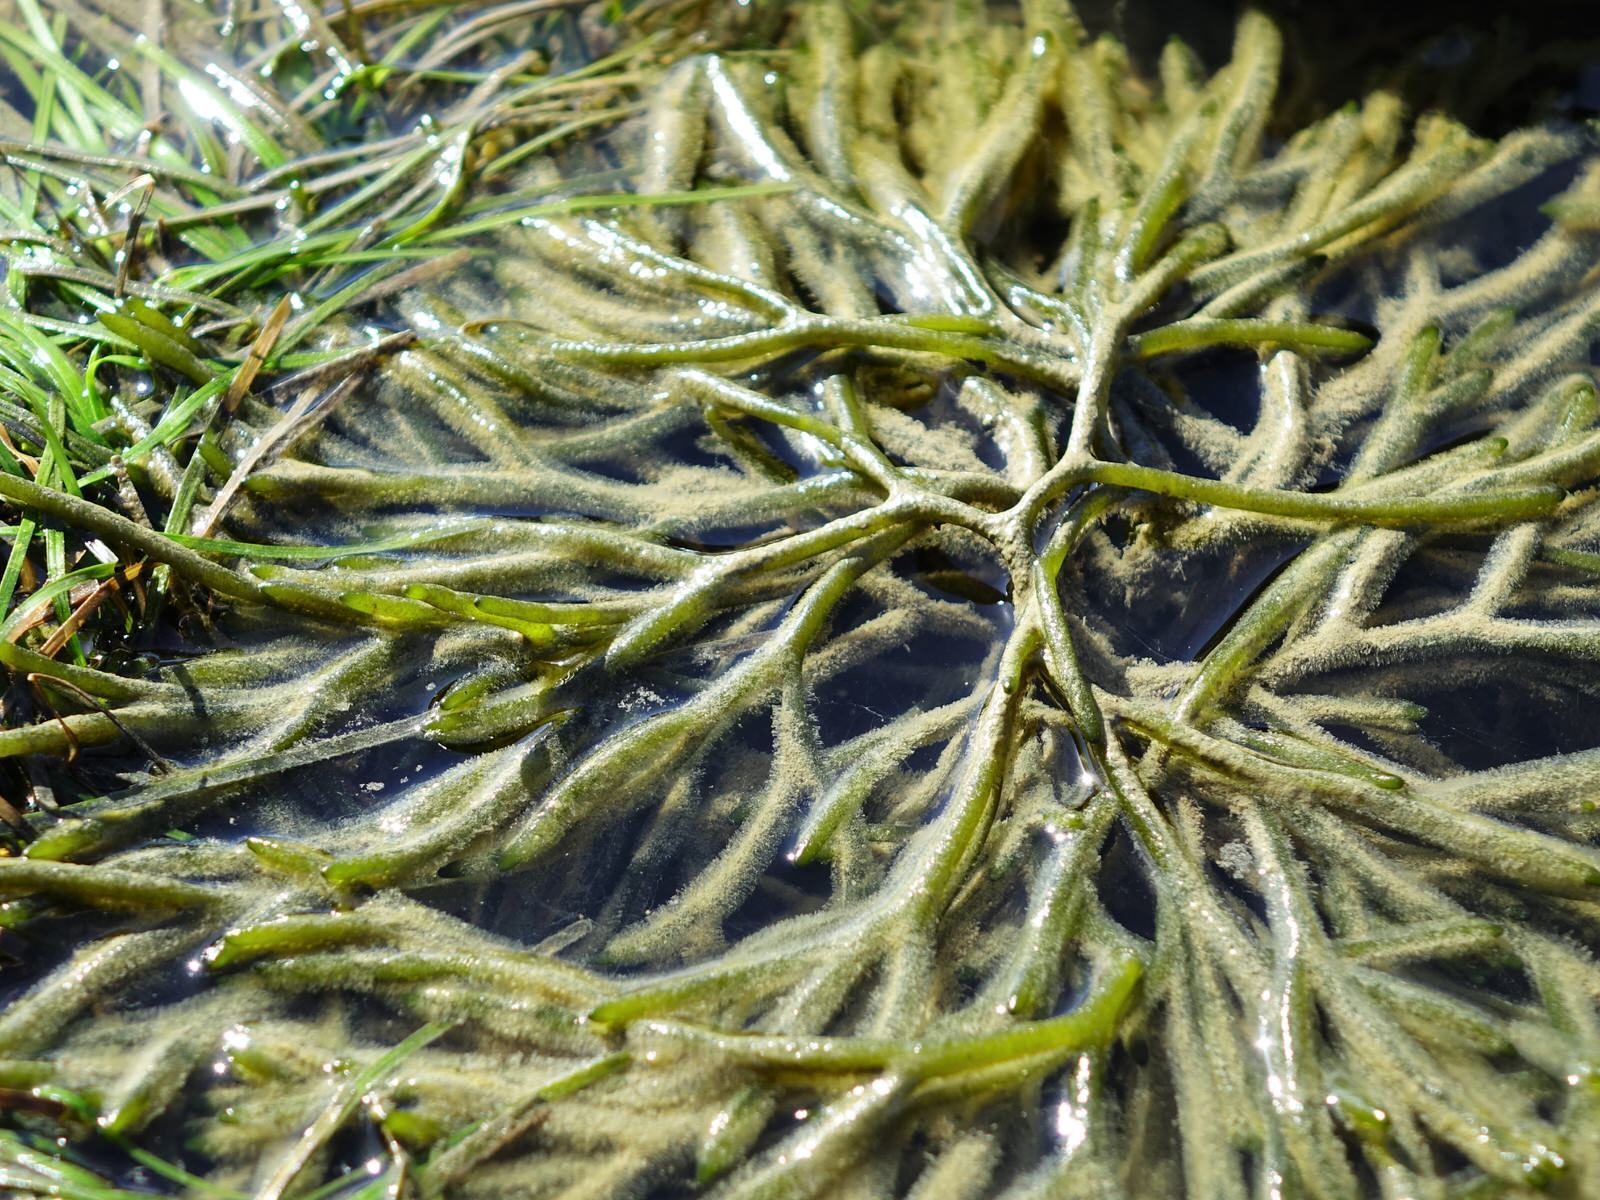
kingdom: Plantae
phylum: Chlorophyta
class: Ulvophyceae
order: Bryopsidales
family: Codiaceae
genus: Codium
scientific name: Codium fragile
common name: Dead man's fingers
